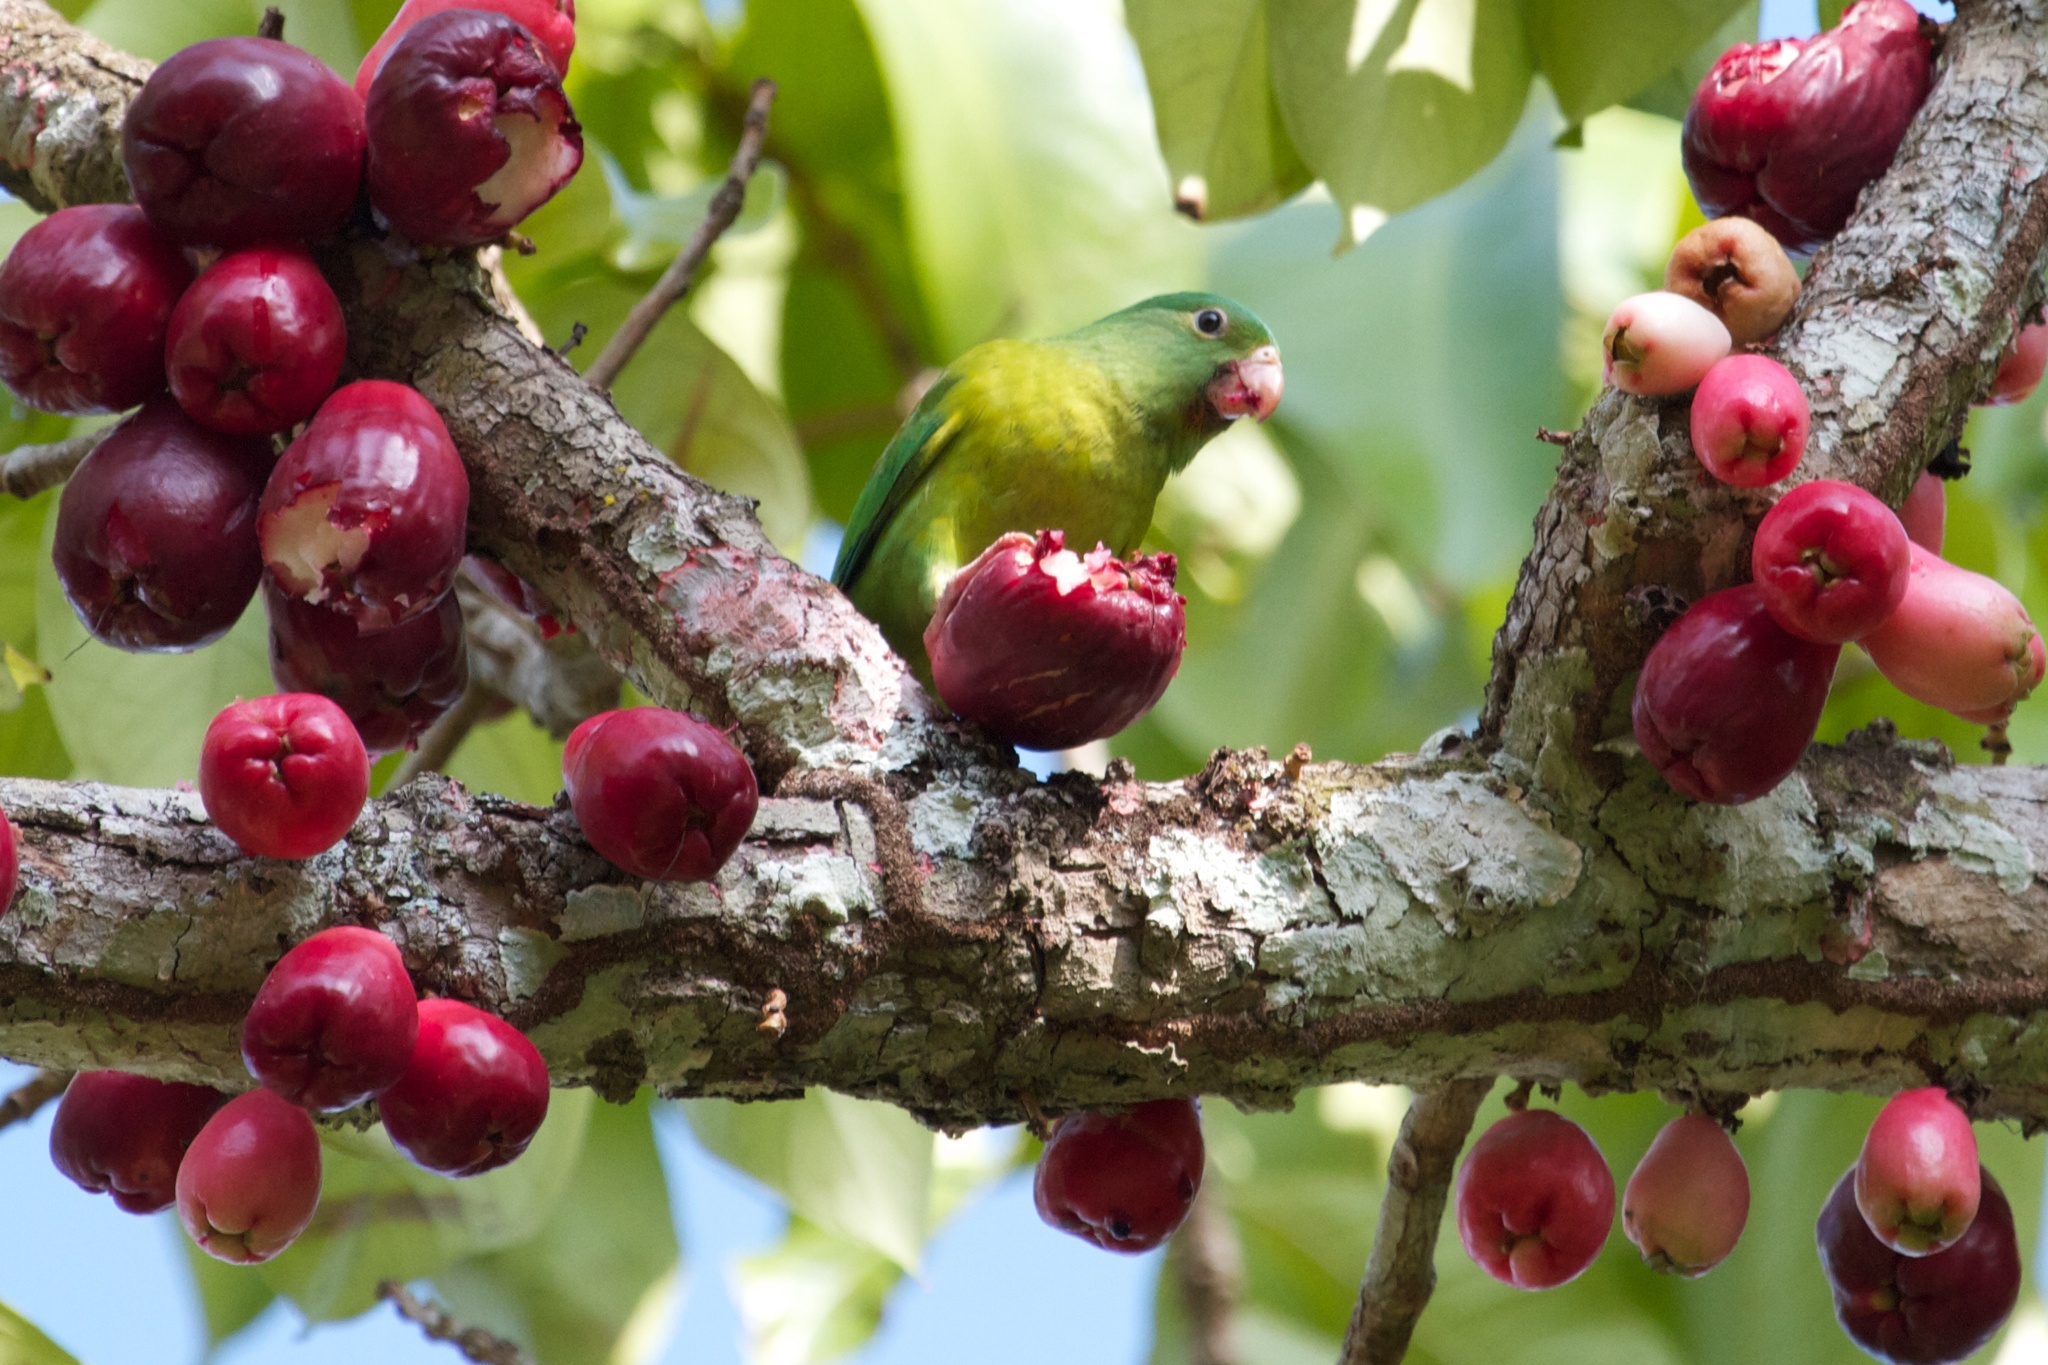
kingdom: Animalia
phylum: Chordata
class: Aves
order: Psittaciformes
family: Psittacidae
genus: Brotogeris
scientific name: Brotogeris jugularis
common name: Orange-chinned parakeet
